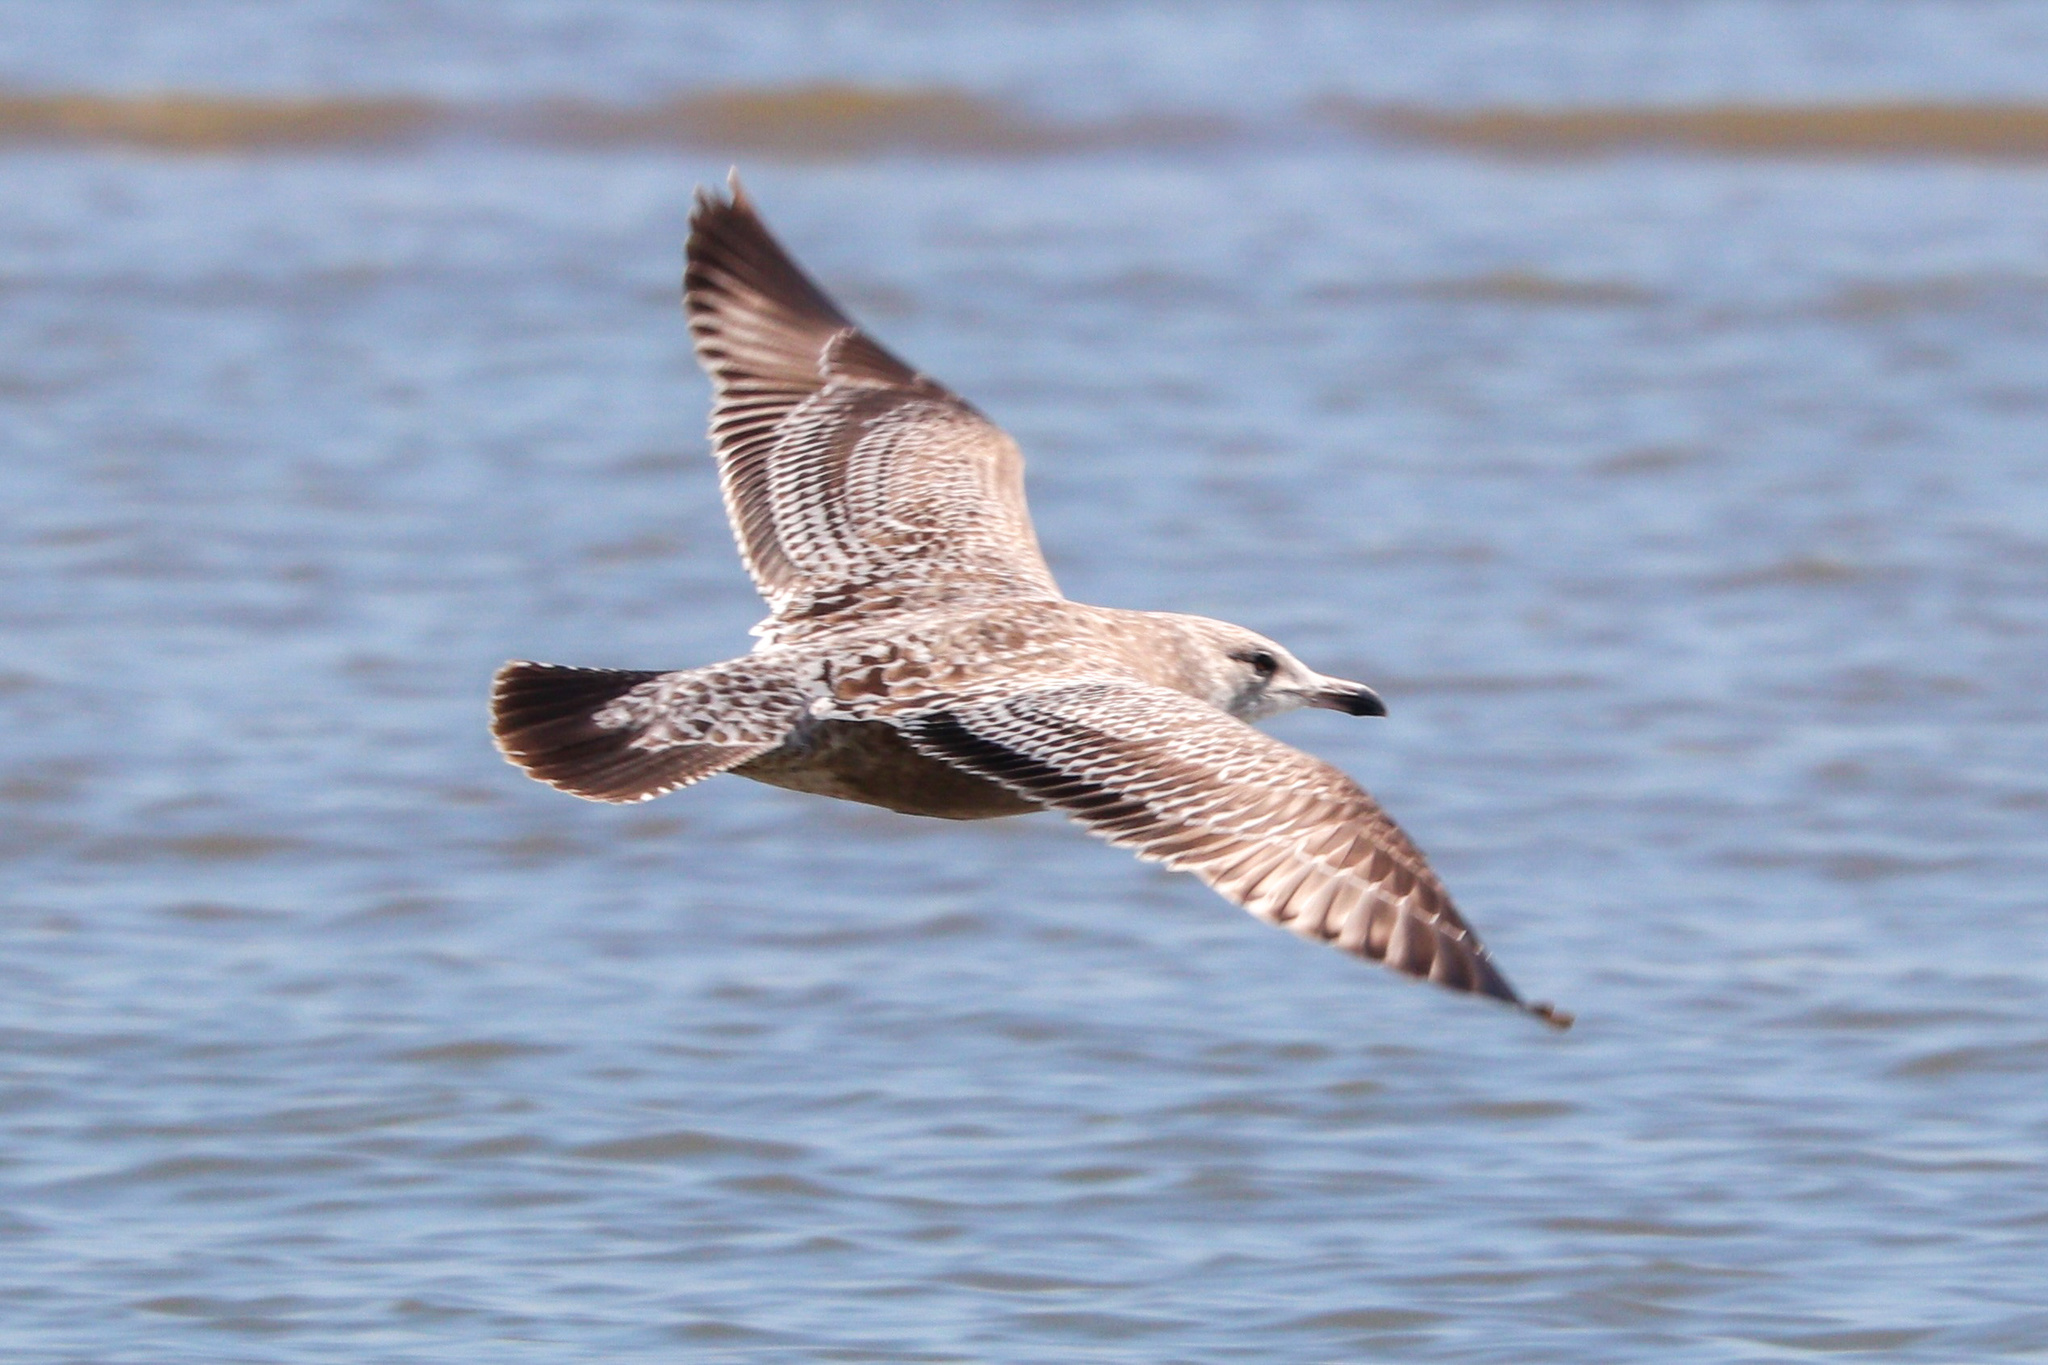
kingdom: Animalia
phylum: Chordata
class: Aves
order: Charadriiformes
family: Laridae
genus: Larus
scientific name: Larus smithsonianus
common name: American herring gull
